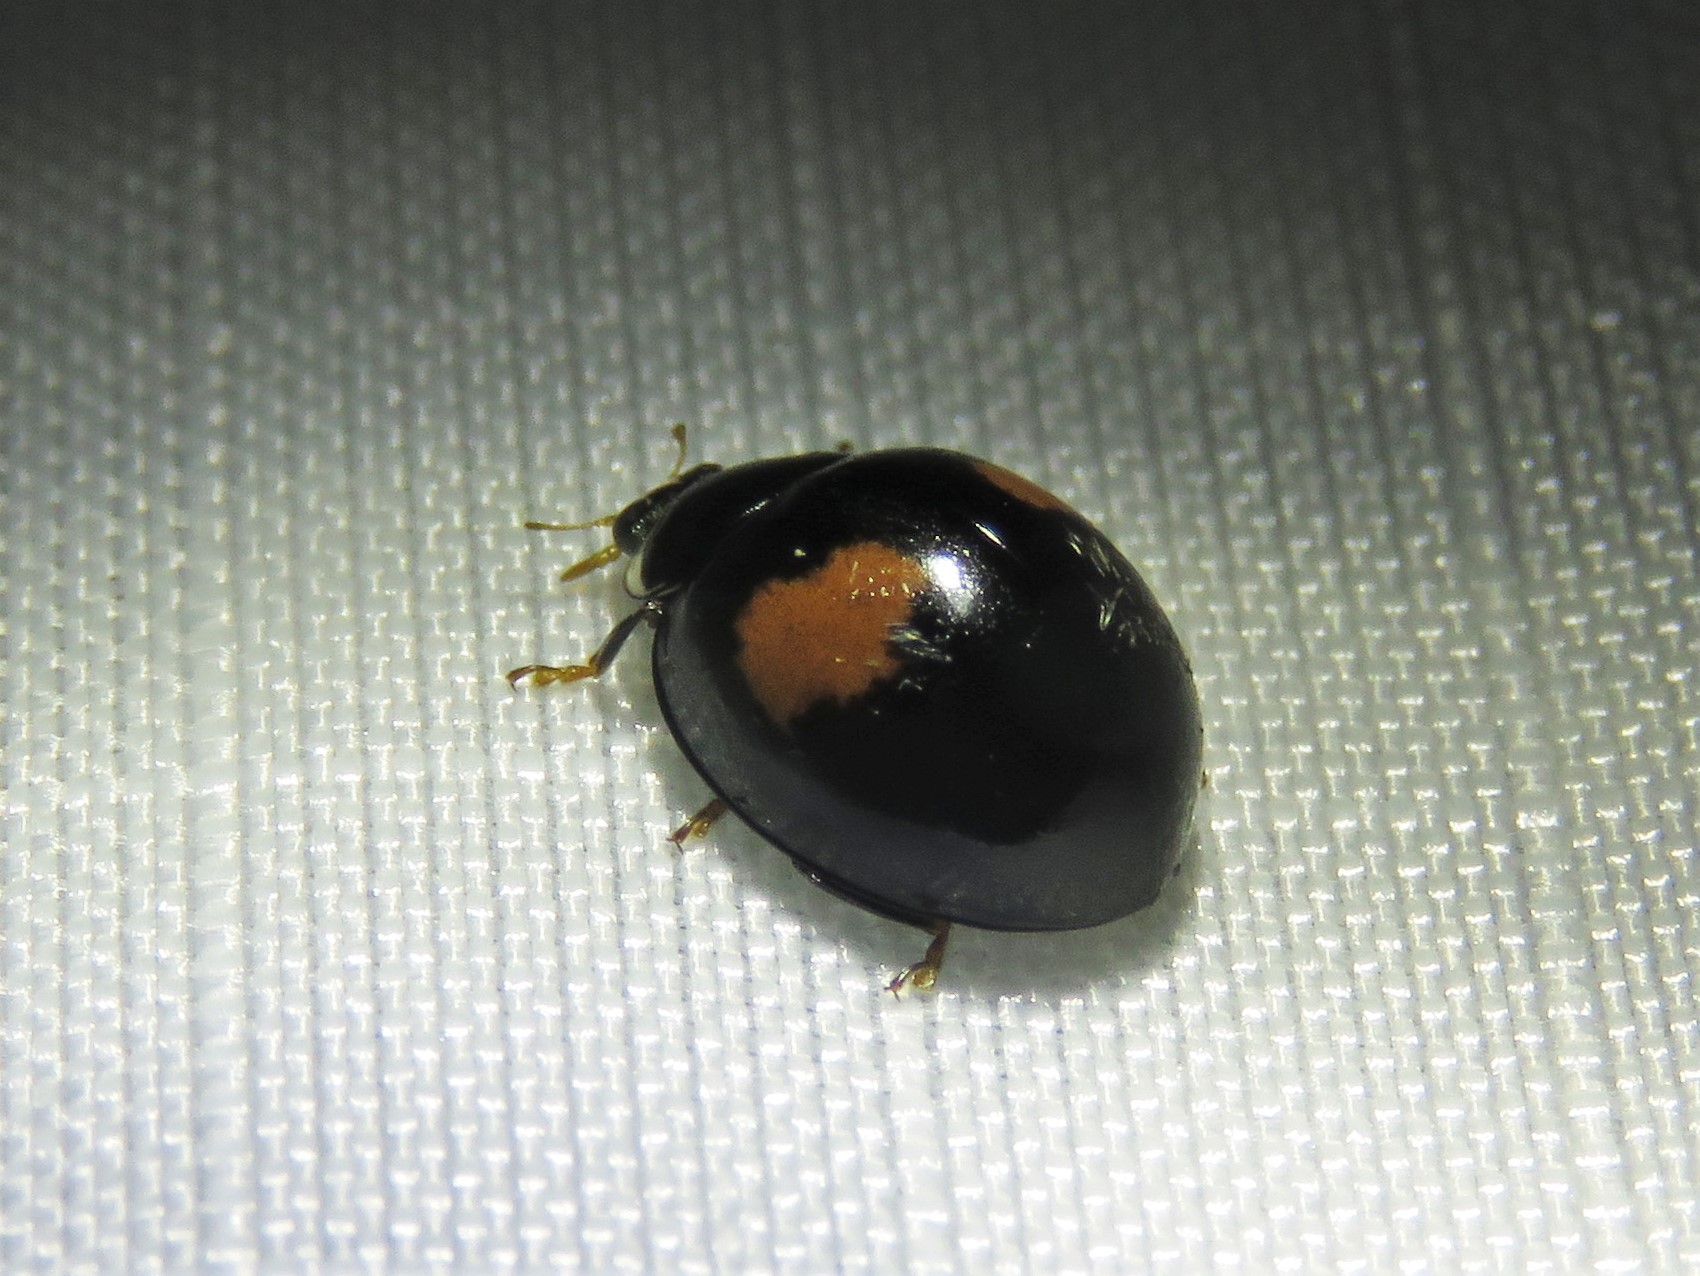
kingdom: Animalia
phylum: Arthropoda
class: Insecta
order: Coleoptera
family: Coccinellidae
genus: Olla
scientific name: Olla v-nigrum
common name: Ashy gray lady beetle
